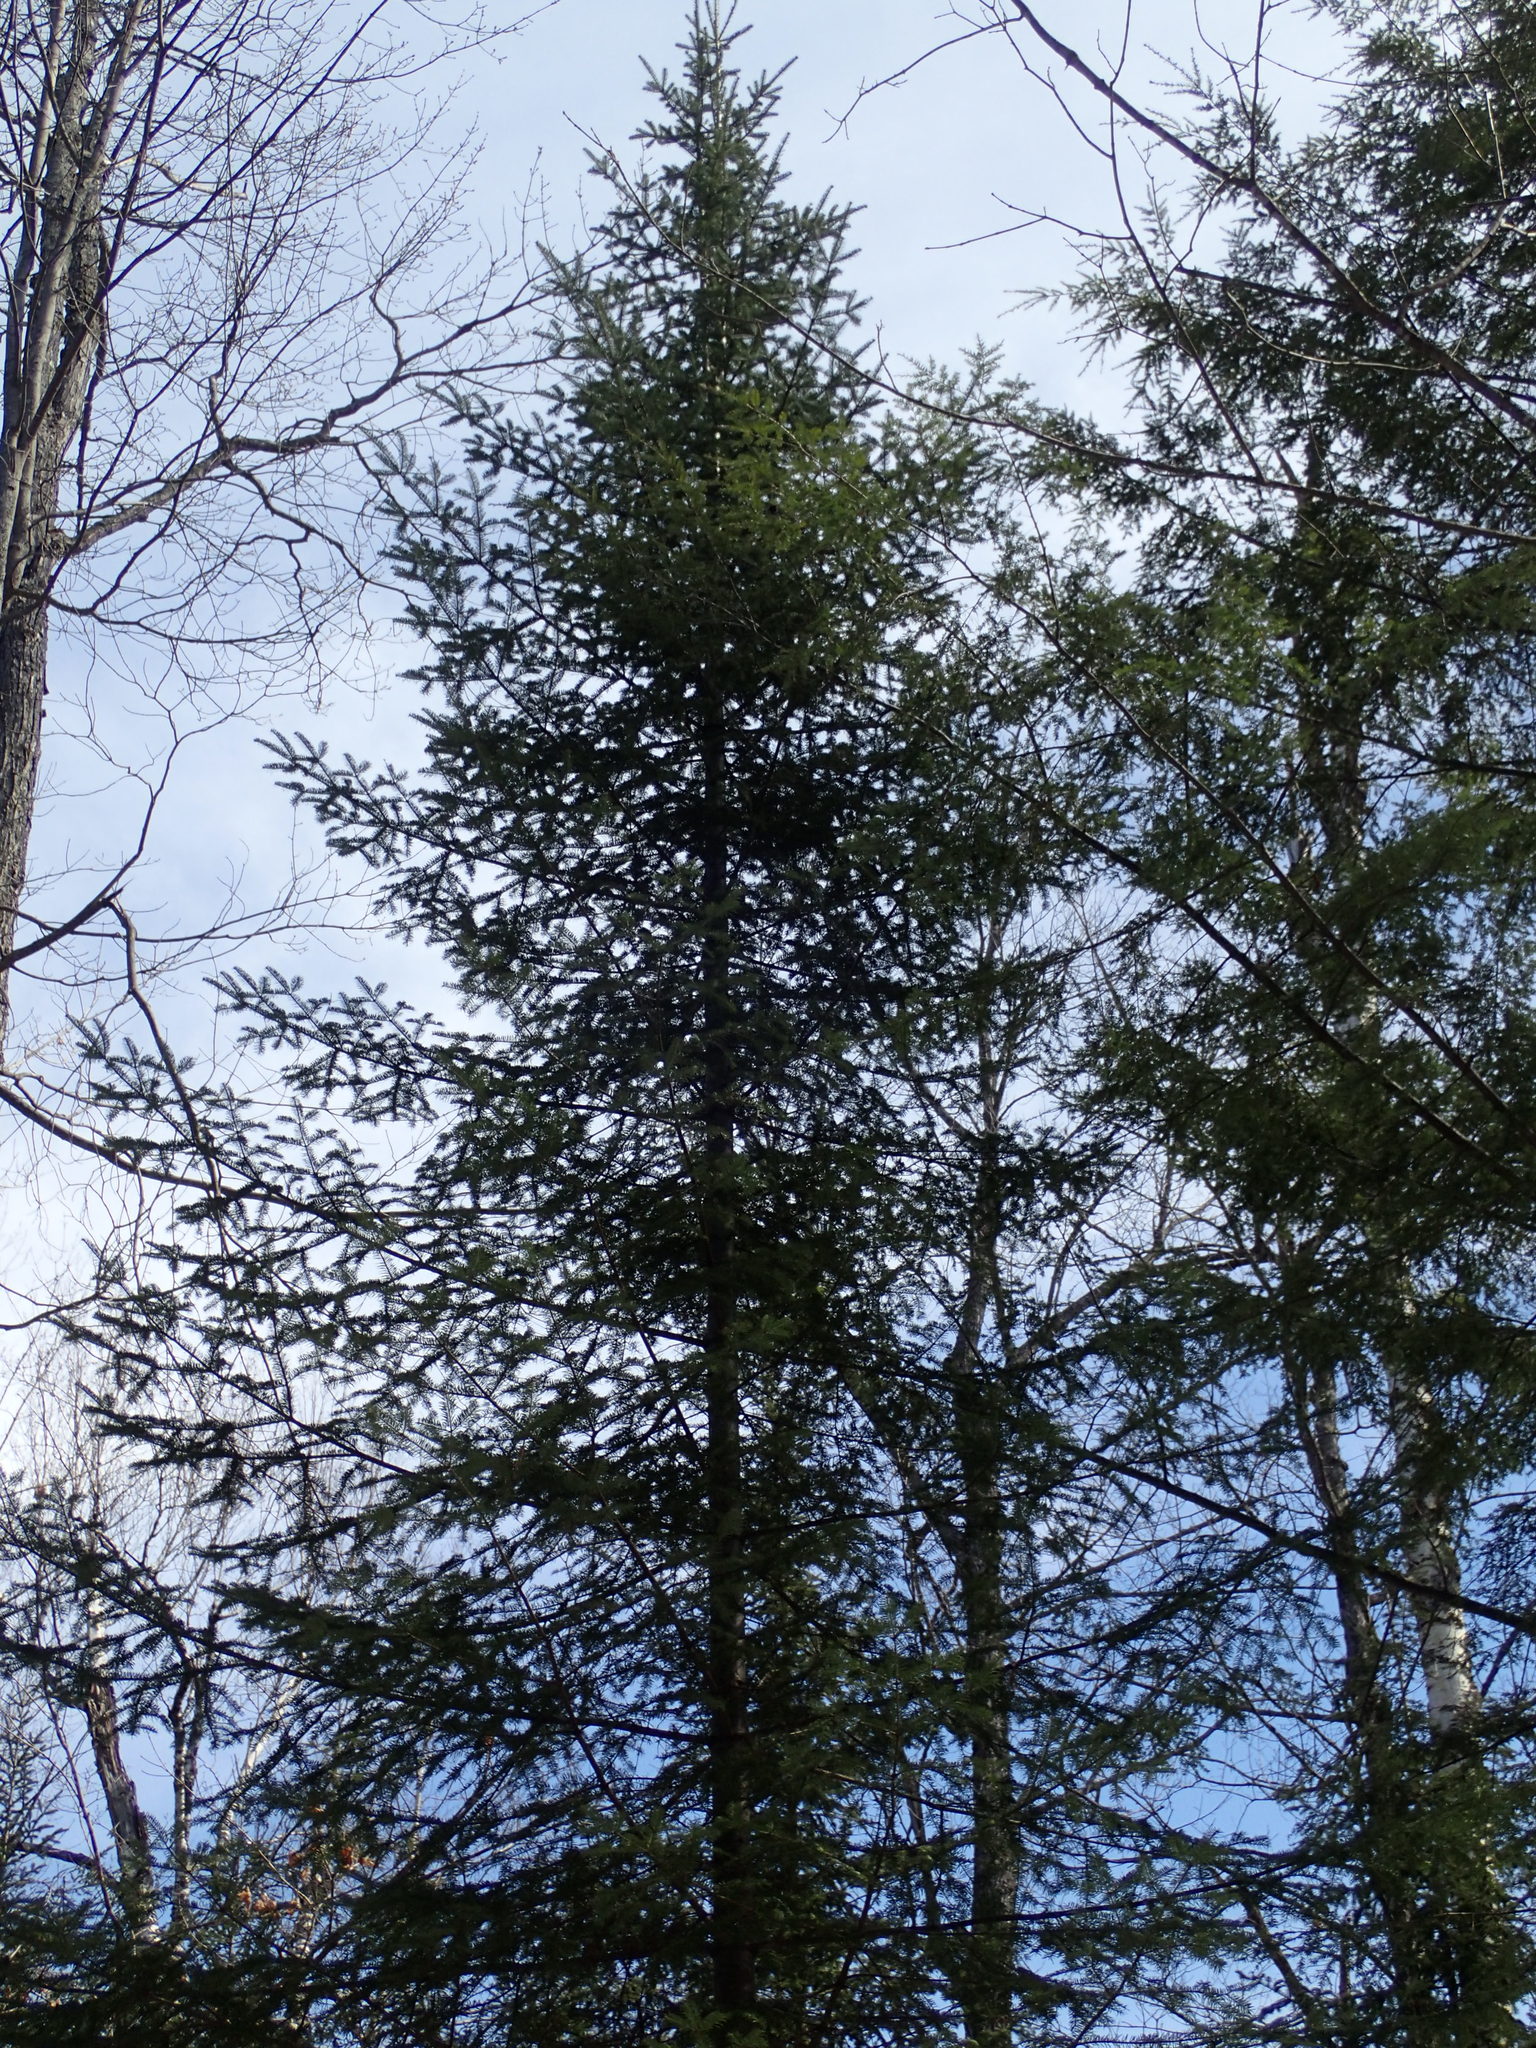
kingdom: Plantae
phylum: Tracheophyta
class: Pinopsida
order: Pinales
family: Pinaceae
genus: Abies
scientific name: Abies balsamea
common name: Balsam fir
